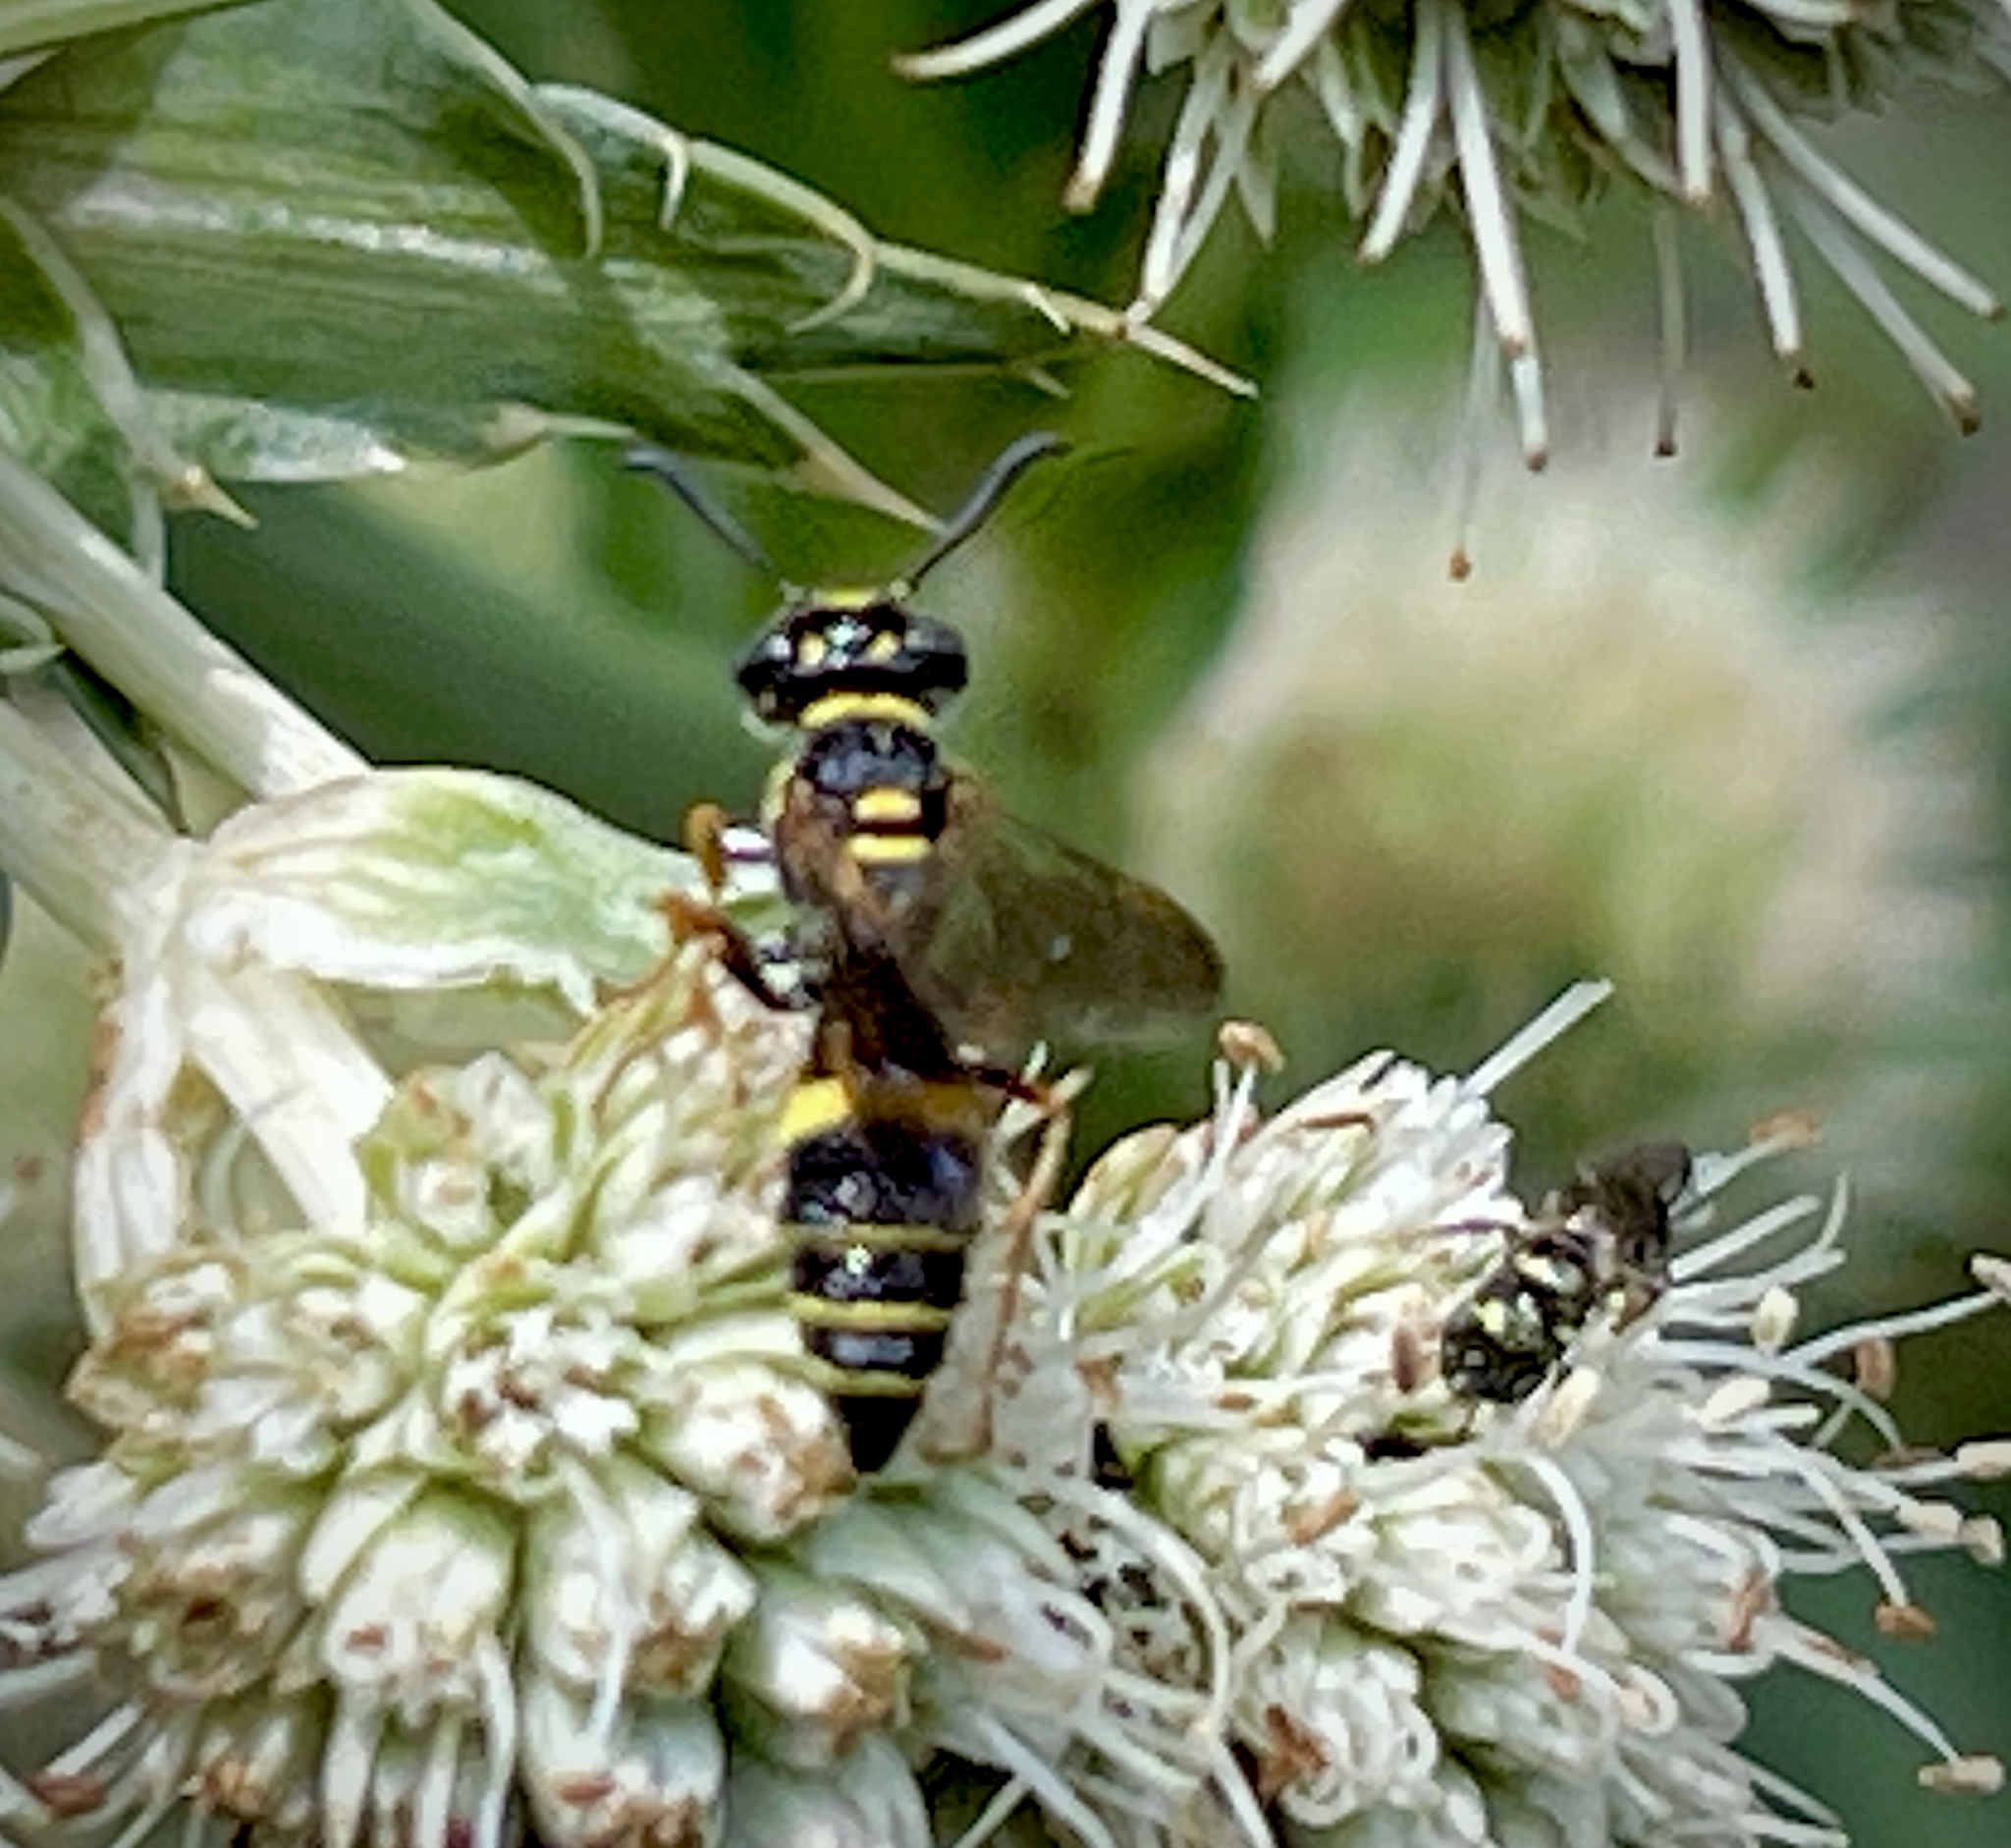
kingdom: Animalia
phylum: Arthropoda
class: Insecta
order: Hymenoptera
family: Crabronidae
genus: Philanthus
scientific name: Philanthus gibbosus
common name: Humped beewolf
